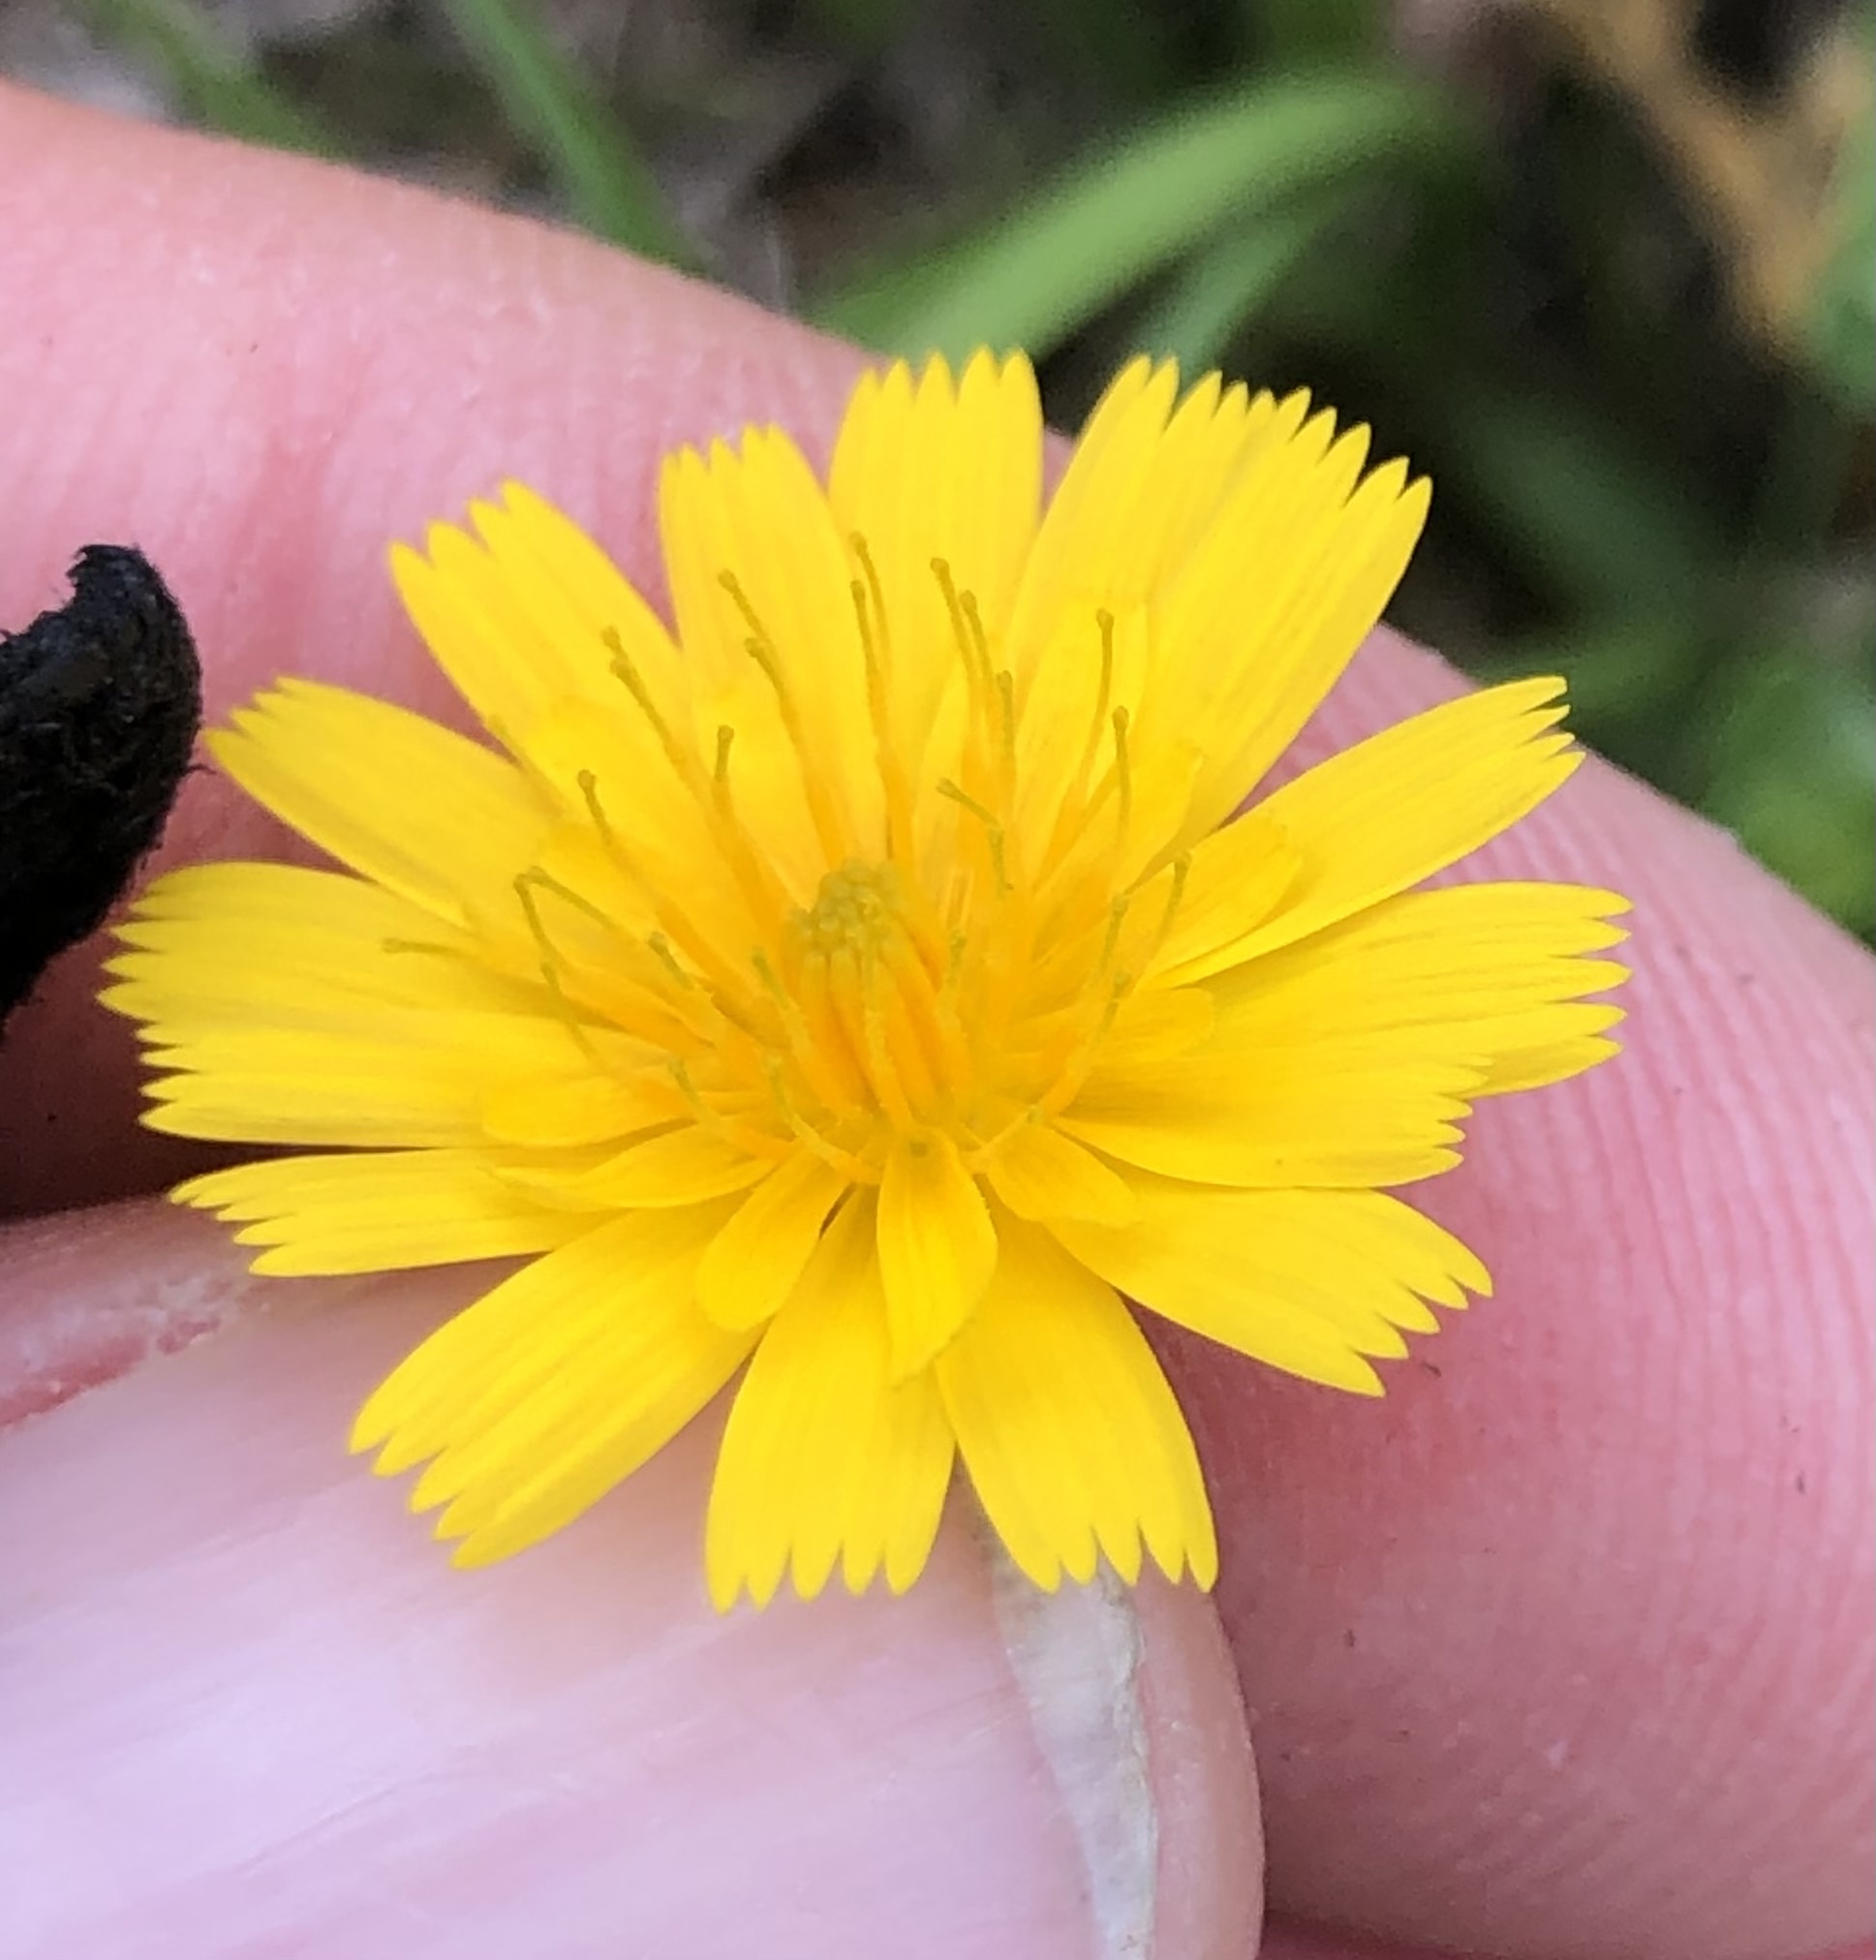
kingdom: Plantae
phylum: Tracheophyta
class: Magnoliopsida
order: Asterales
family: Asteraceae
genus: Krigia
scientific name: Krigia cespitosa
